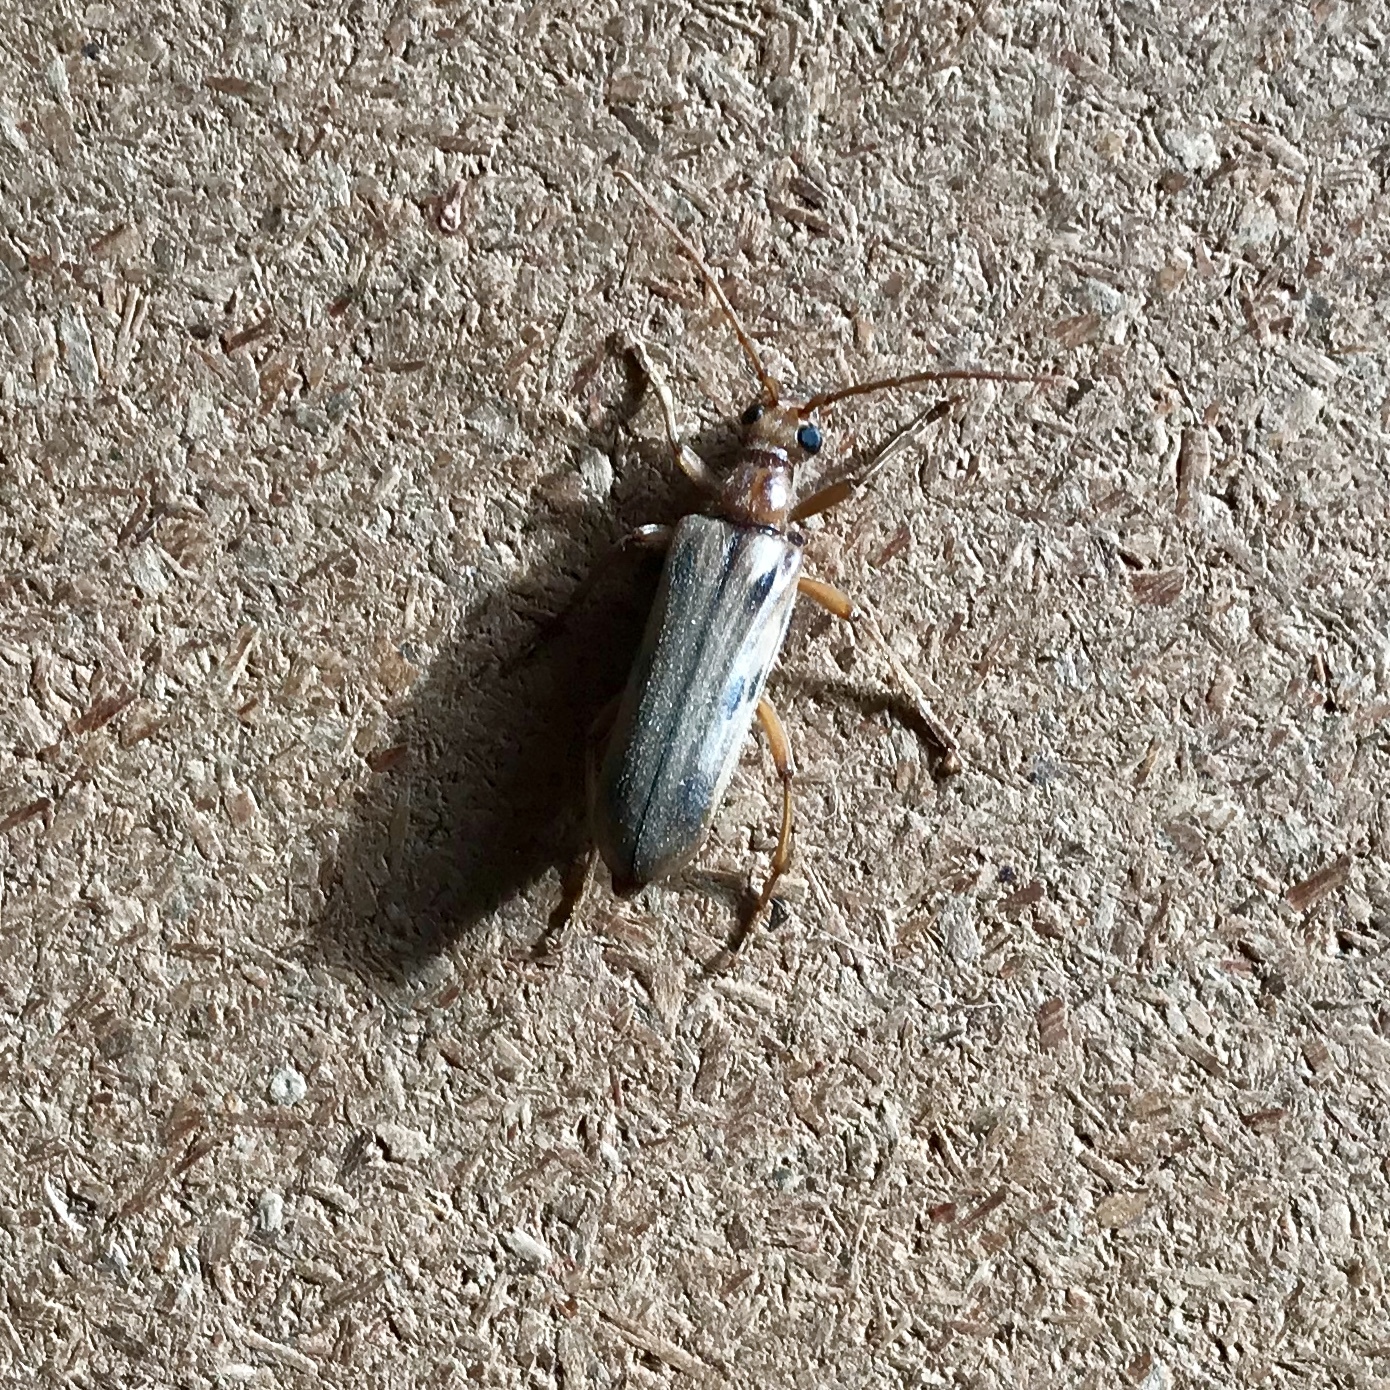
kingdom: Animalia
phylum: Arthropoda
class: Insecta
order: Coleoptera
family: Cerambycidae
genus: Ortholeptura
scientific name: Ortholeptura valida
